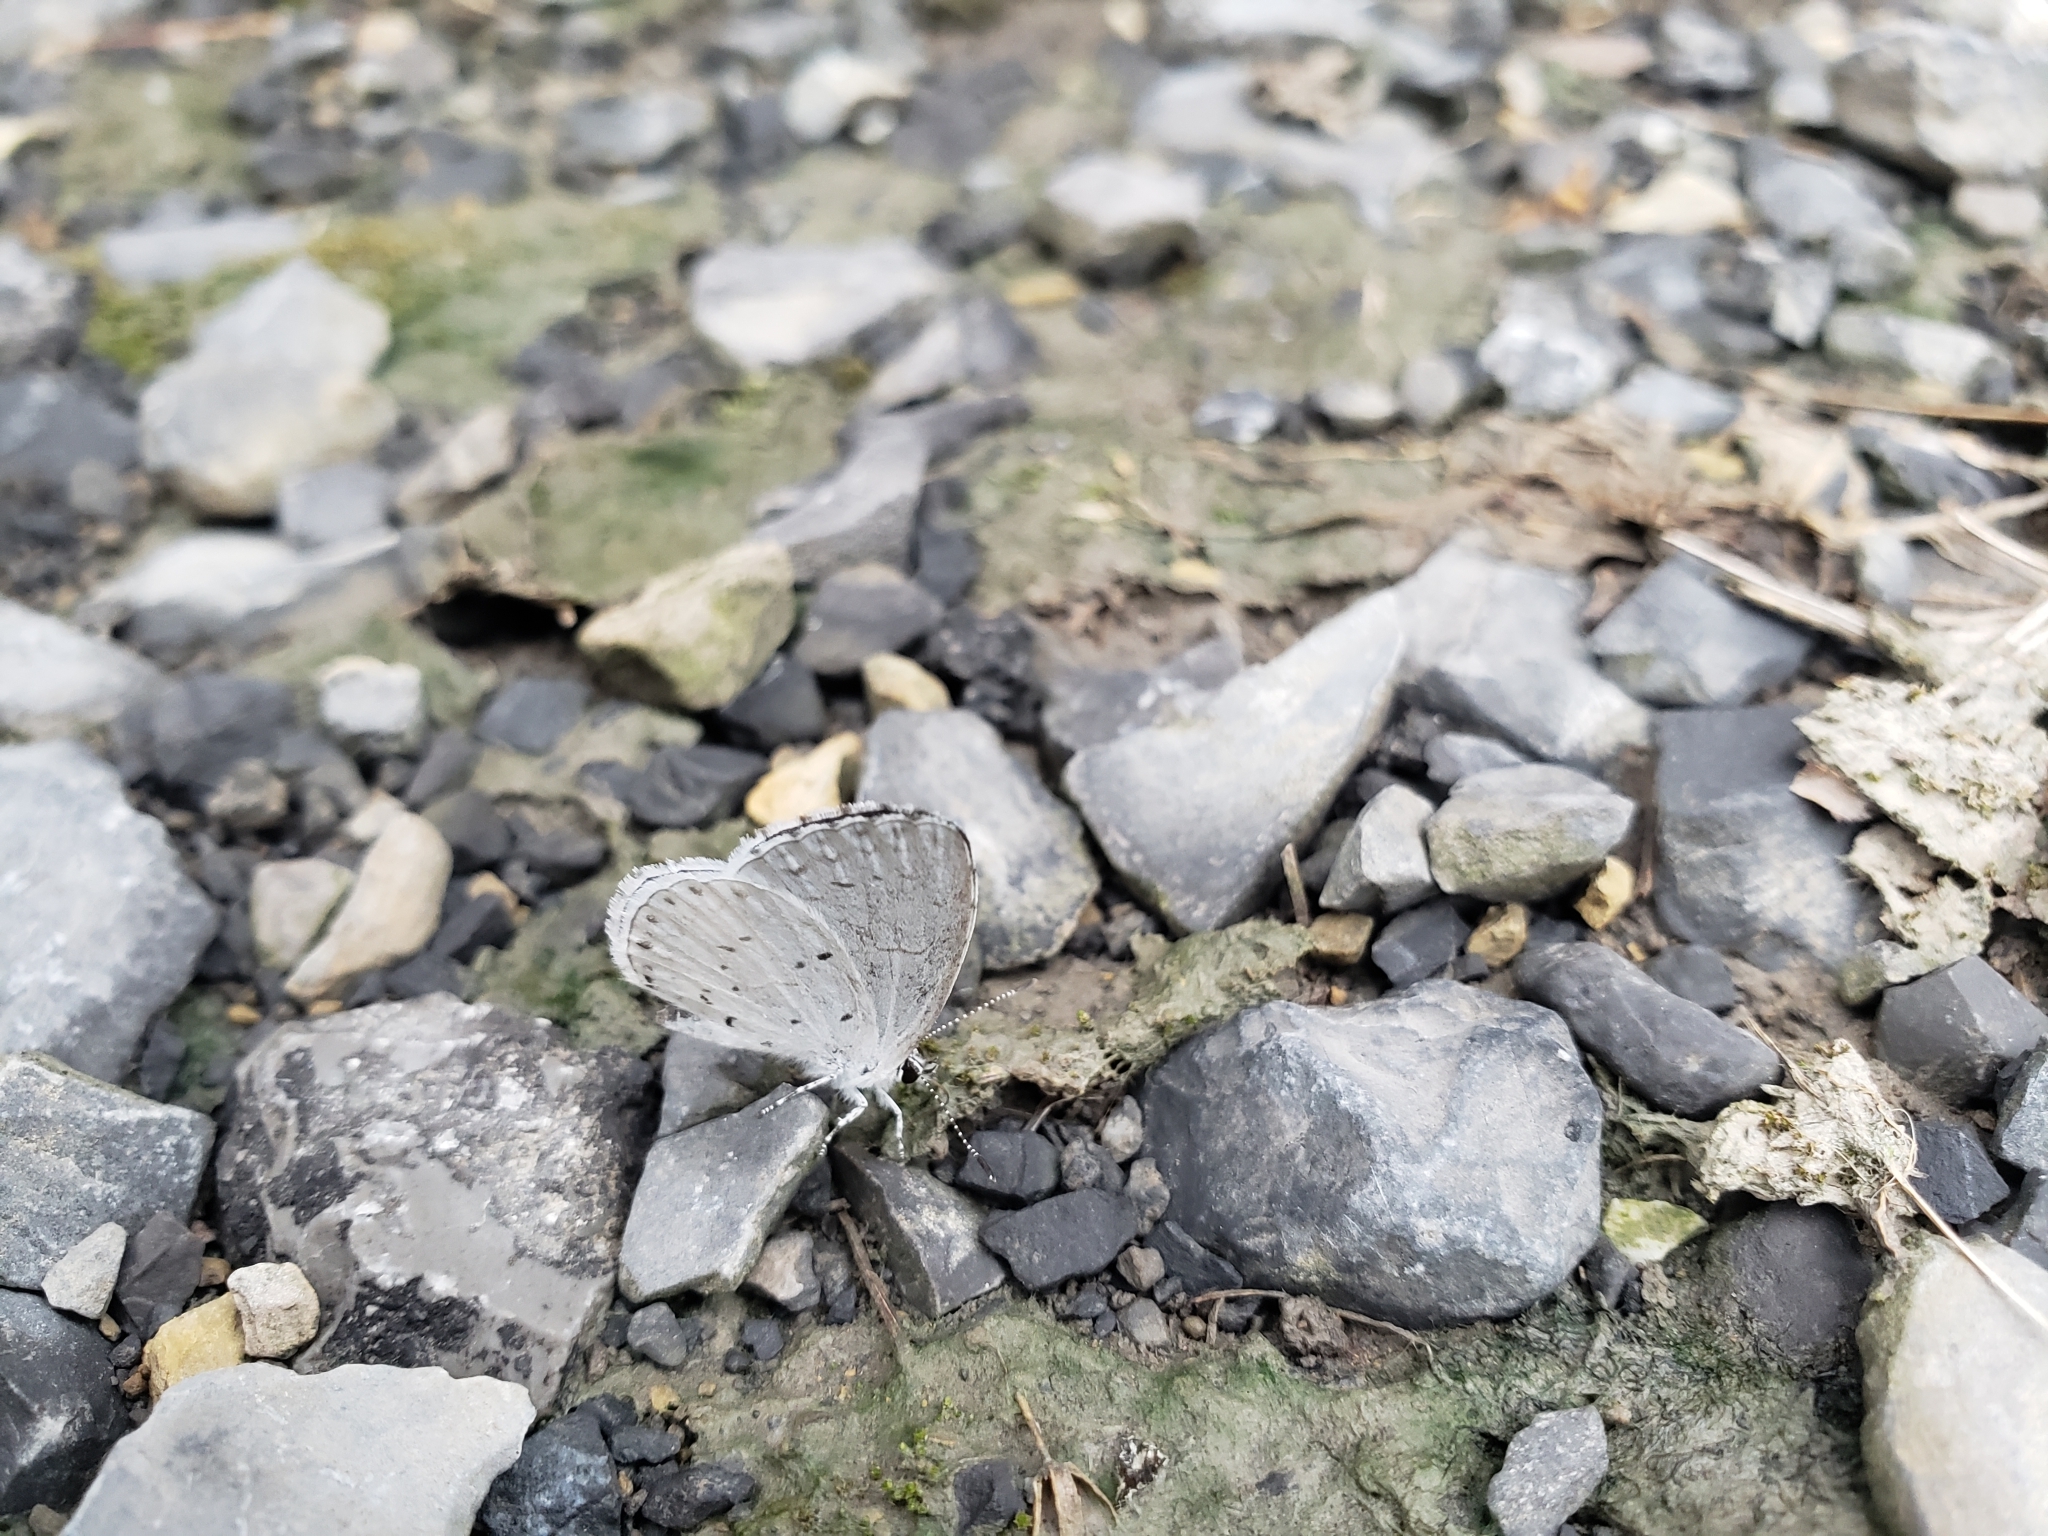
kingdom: Animalia
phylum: Arthropoda
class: Insecta
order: Lepidoptera
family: Lycaenidae
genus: Cyaniris
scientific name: Cyaniris neglecta
